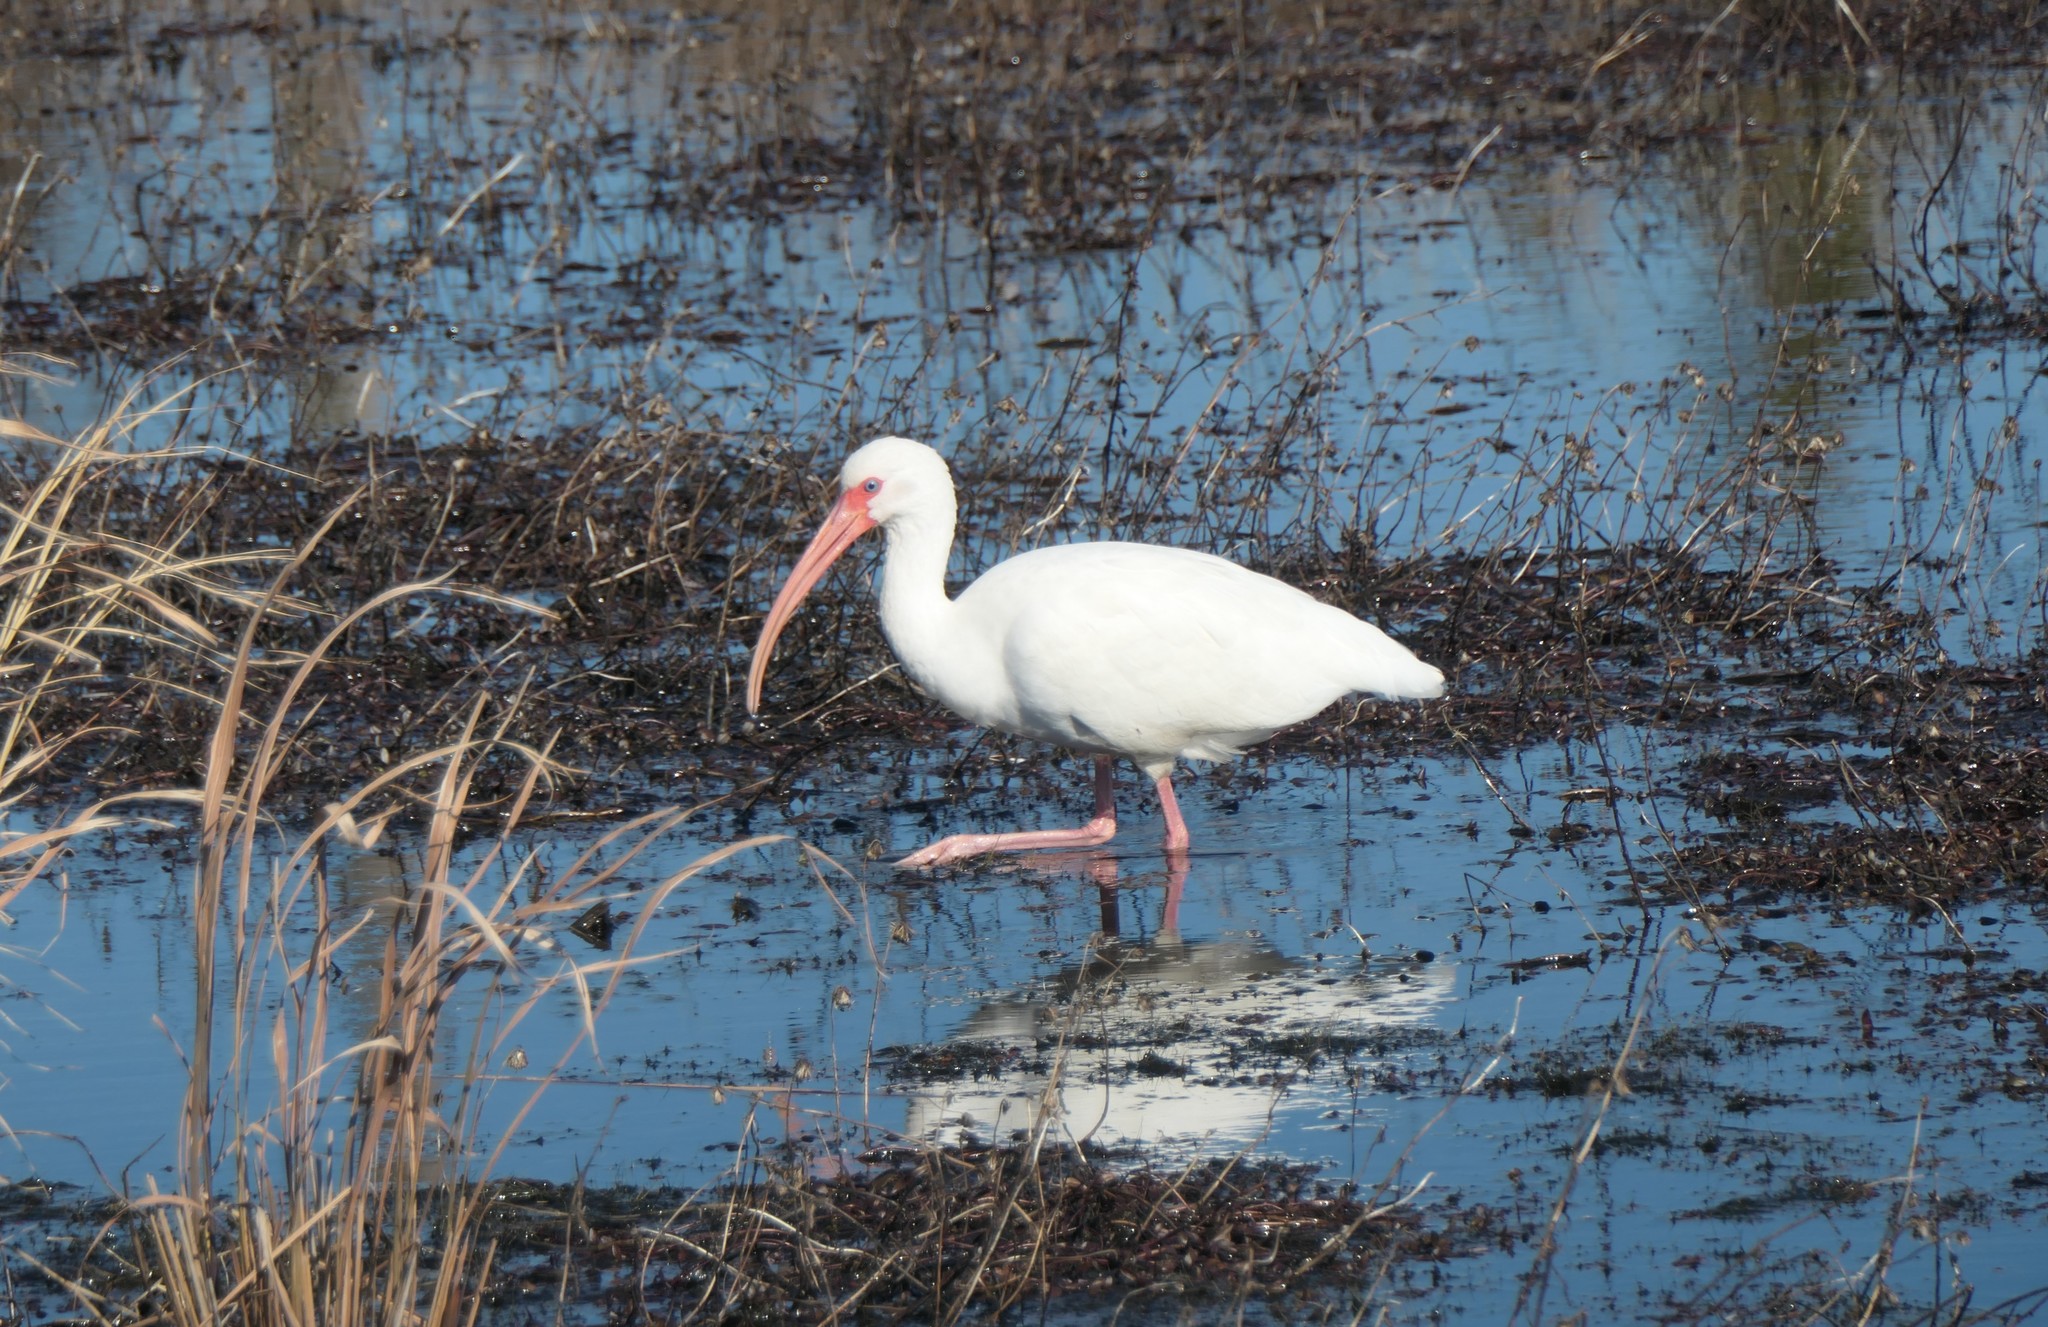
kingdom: Animalia
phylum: Chordata
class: Aves
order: Pelecaniformes
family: Threskiornithidae
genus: Eudocimus
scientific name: Eudocimus albus
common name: White ibis
